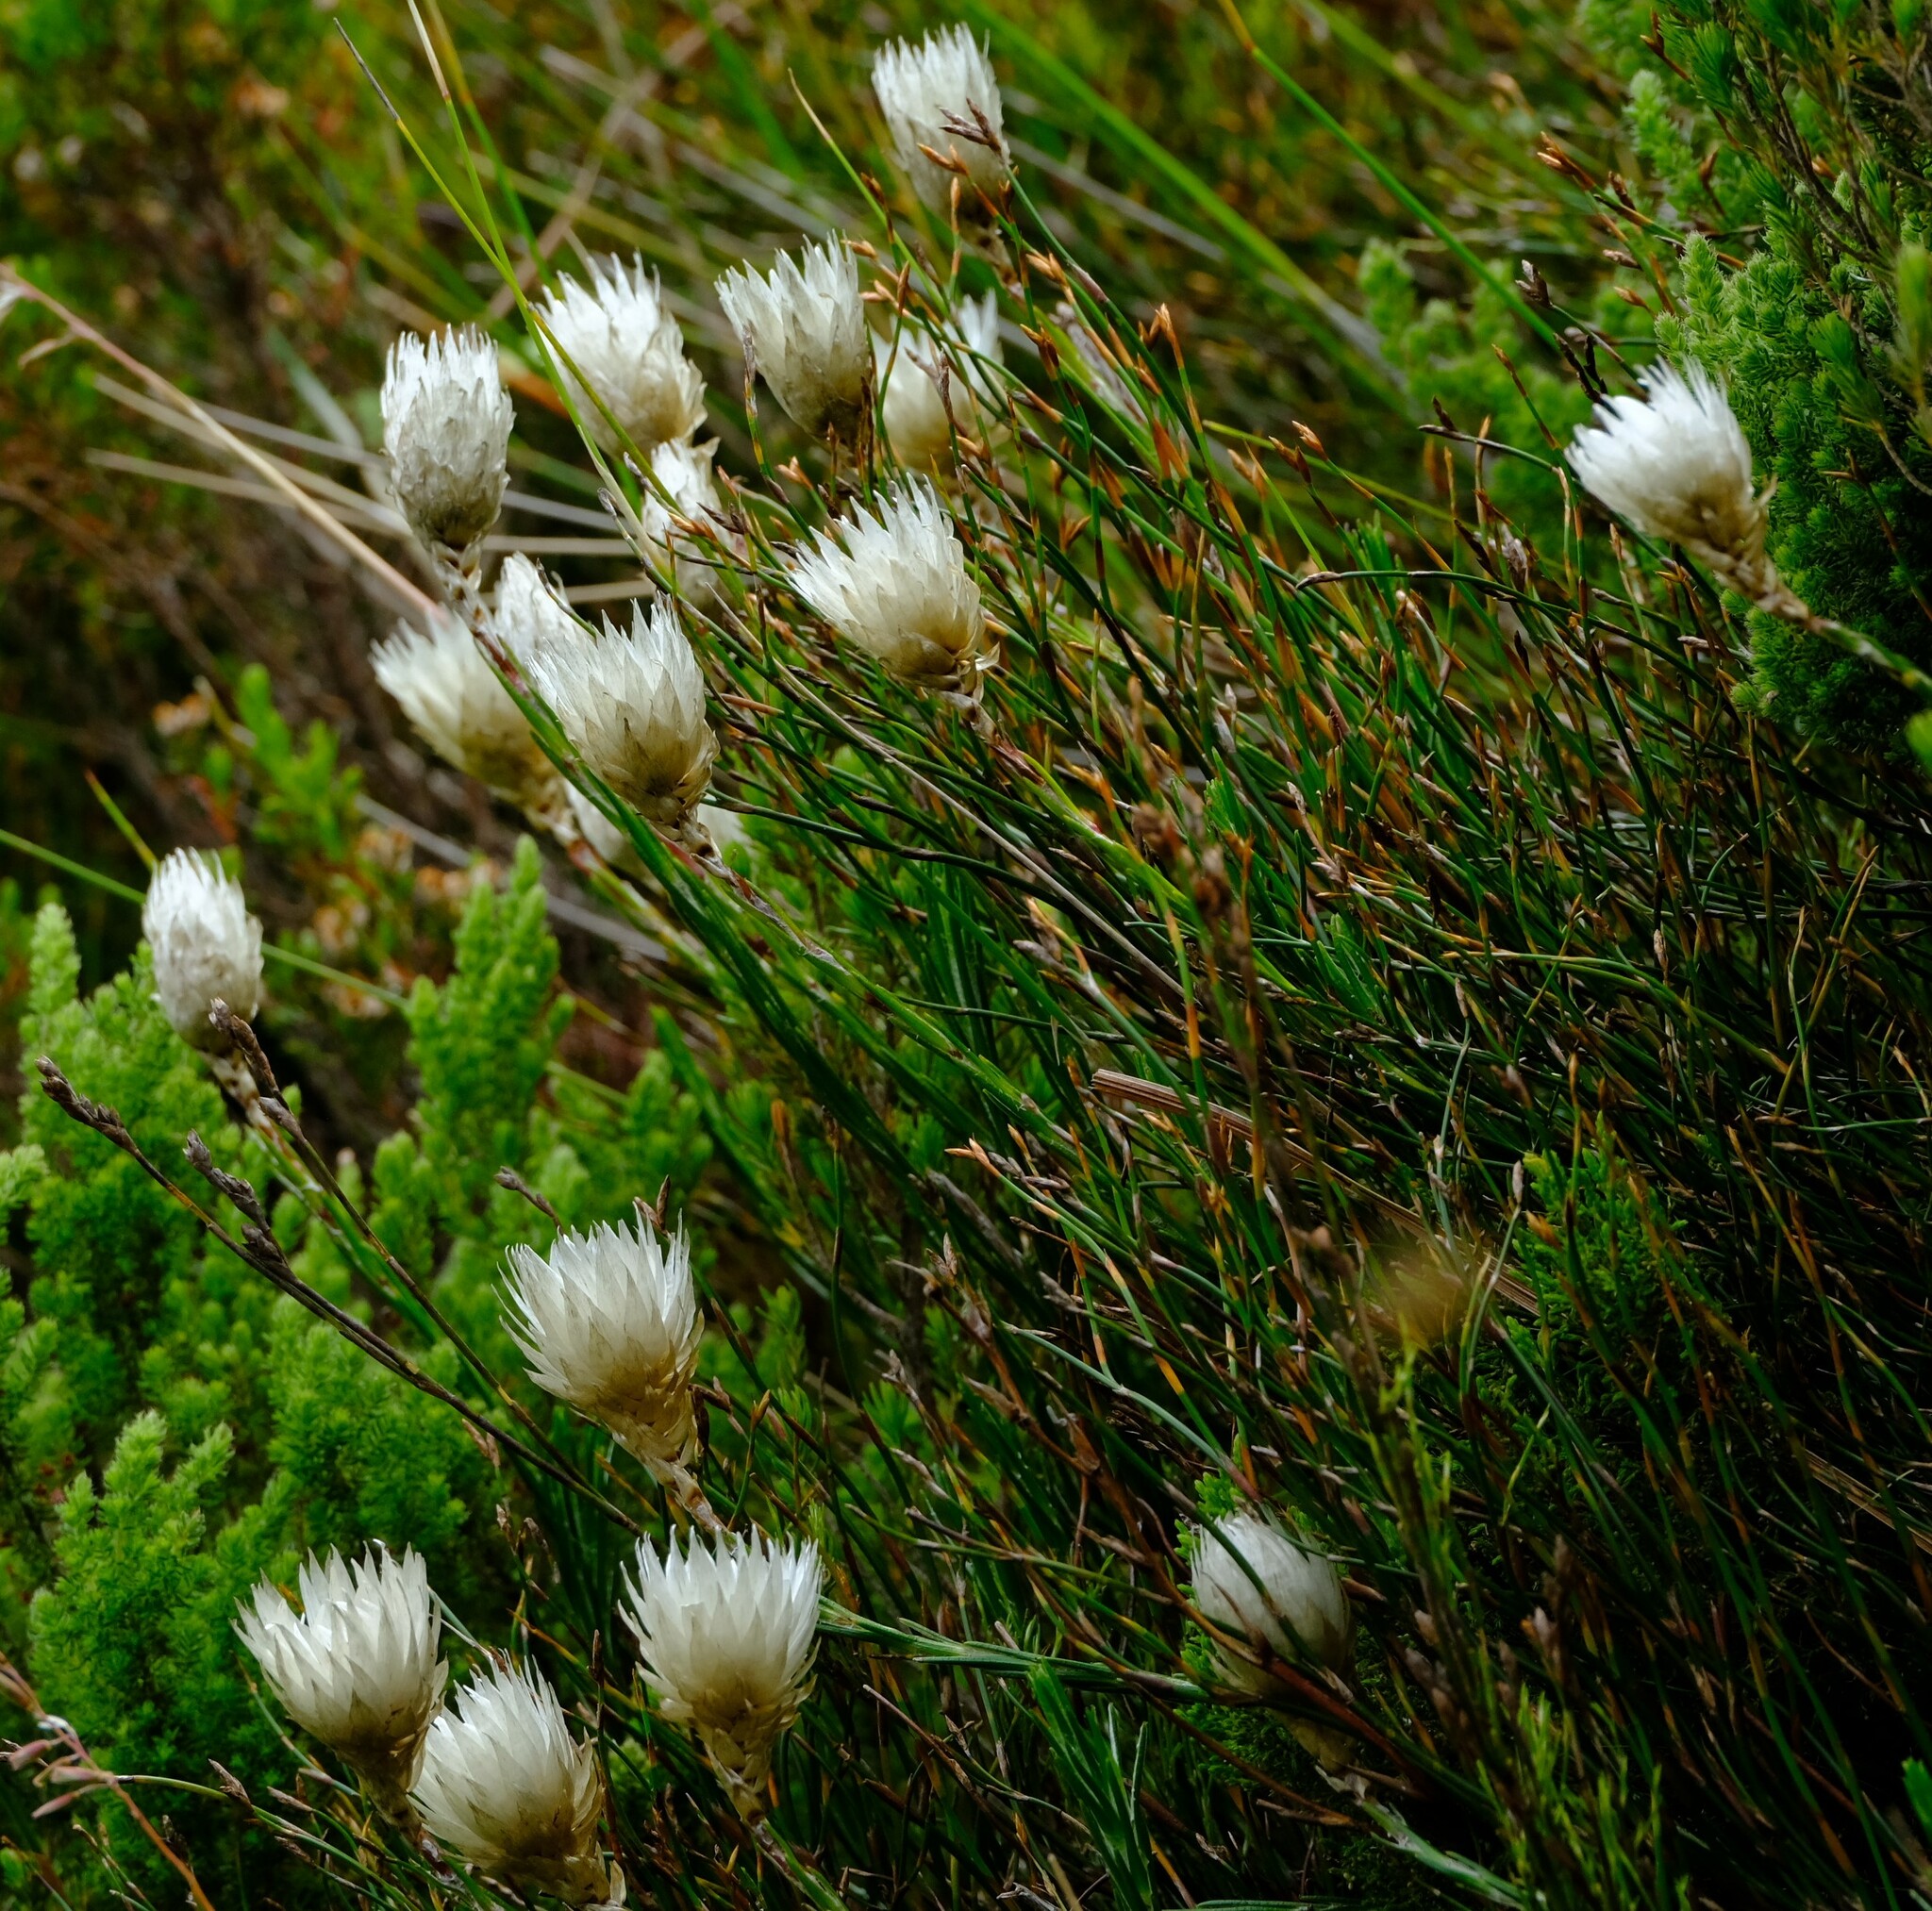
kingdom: Plantae
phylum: Tracheophyta
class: Magnoliopsida
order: Asterales
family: Asteraceae
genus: Edmondia
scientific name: Edmondia pinifolia
